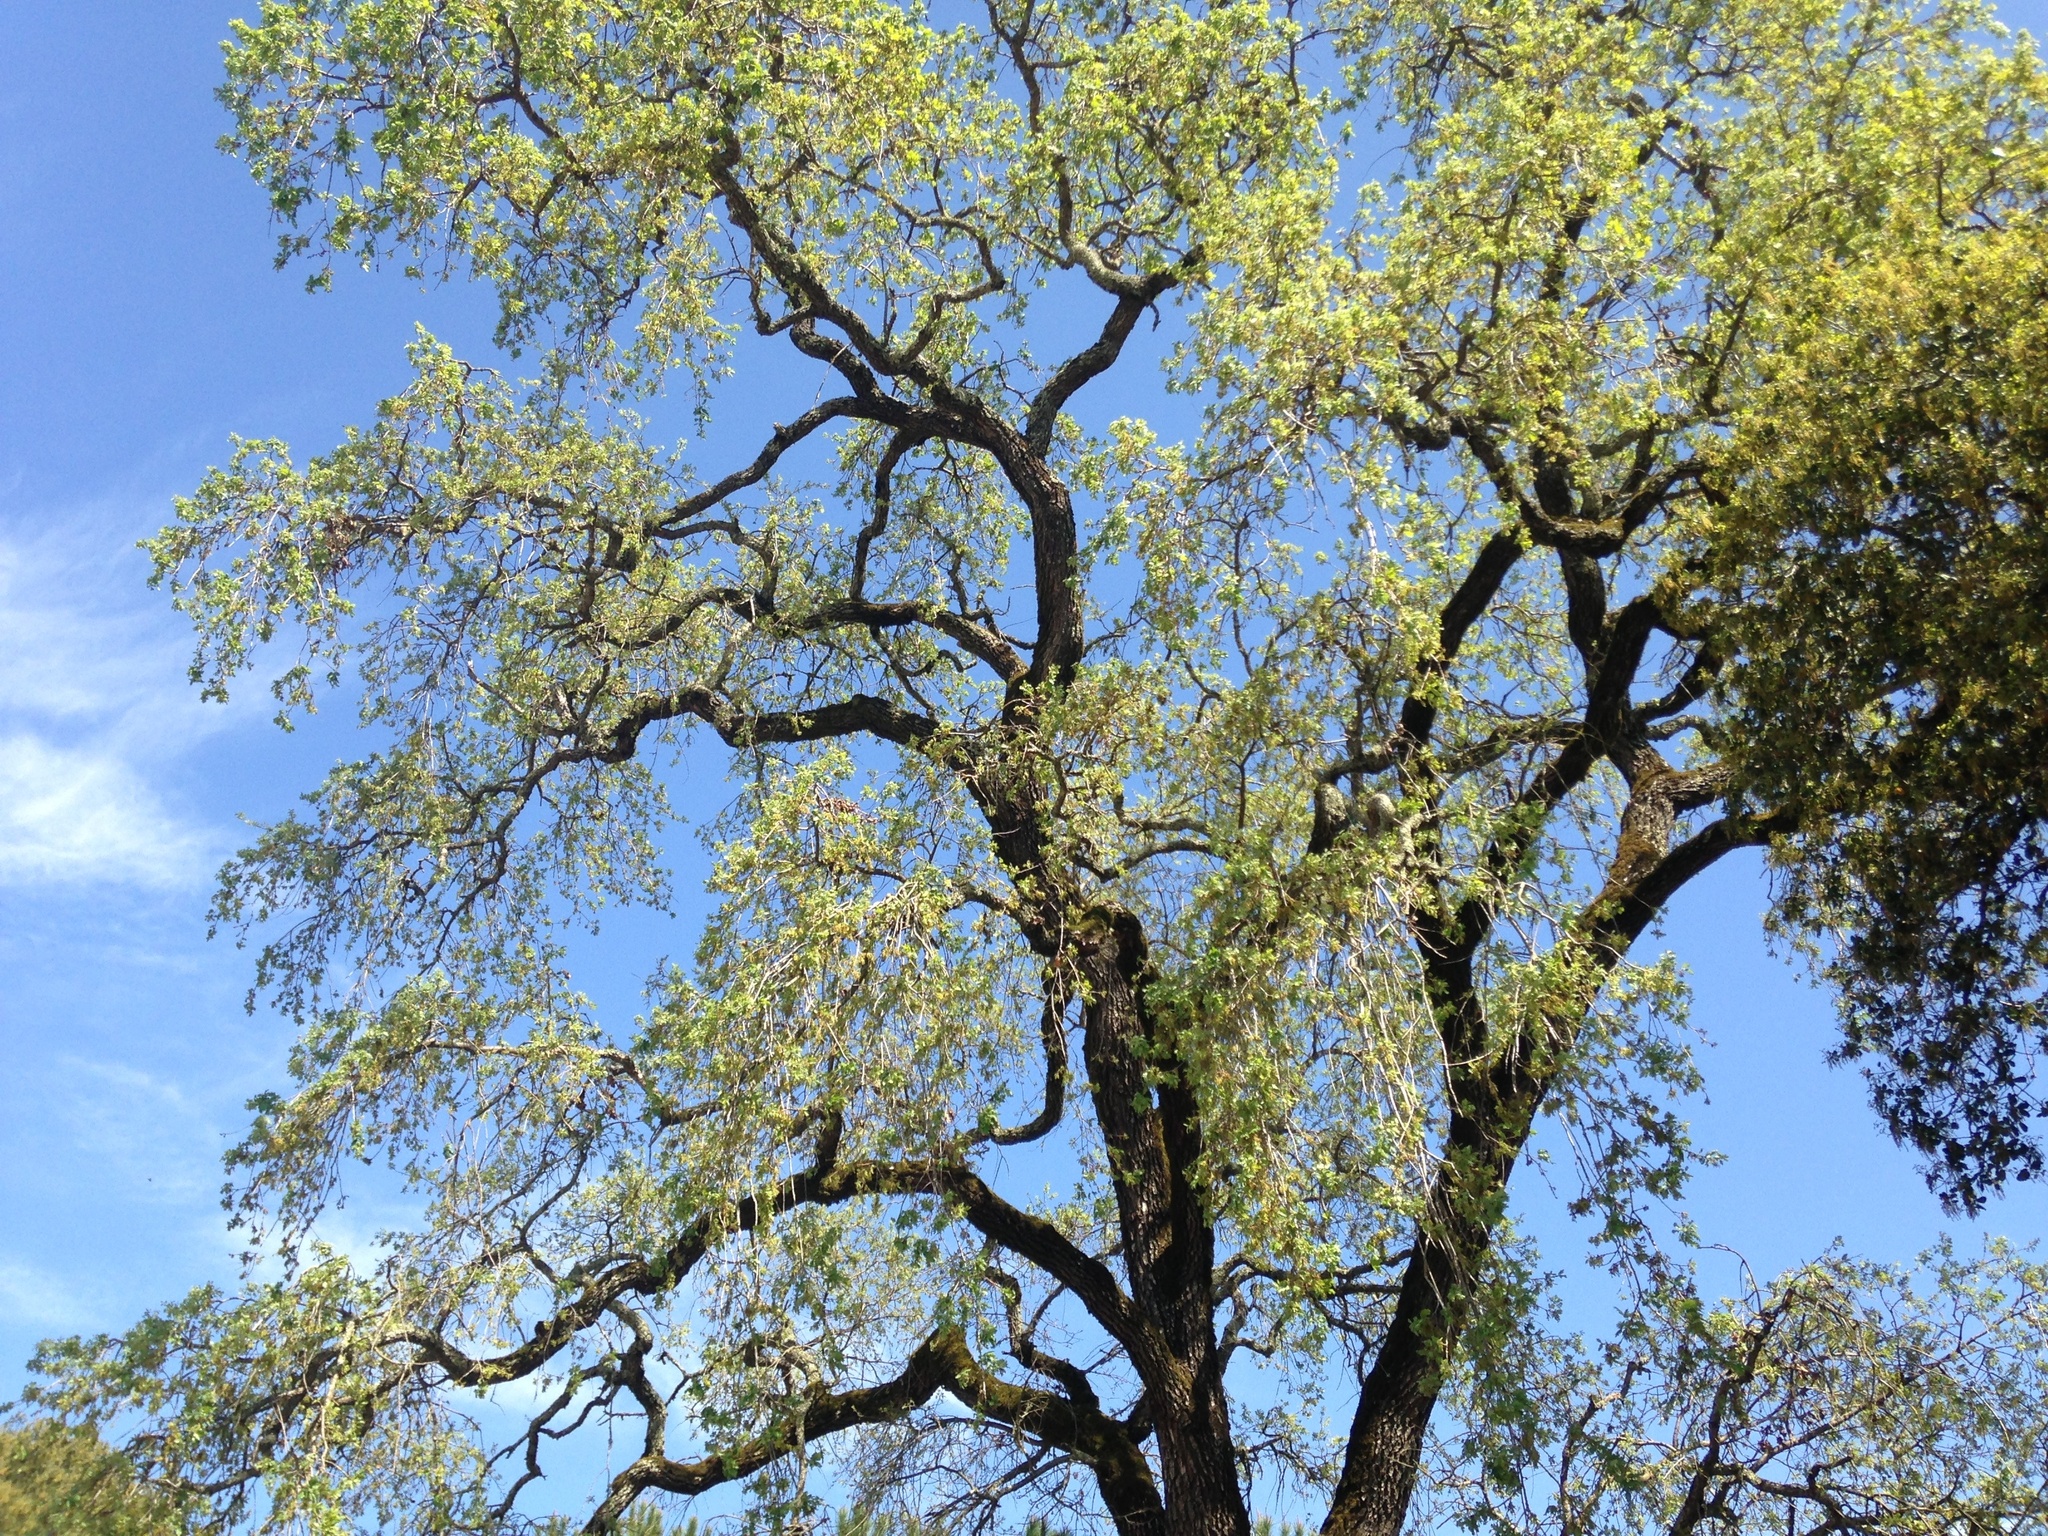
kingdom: Plantae
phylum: Tracheophyta
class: Magnoliopsida
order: Fagales
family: Fagaceae
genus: Quercus
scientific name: Quercus lobata
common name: Valley oak
